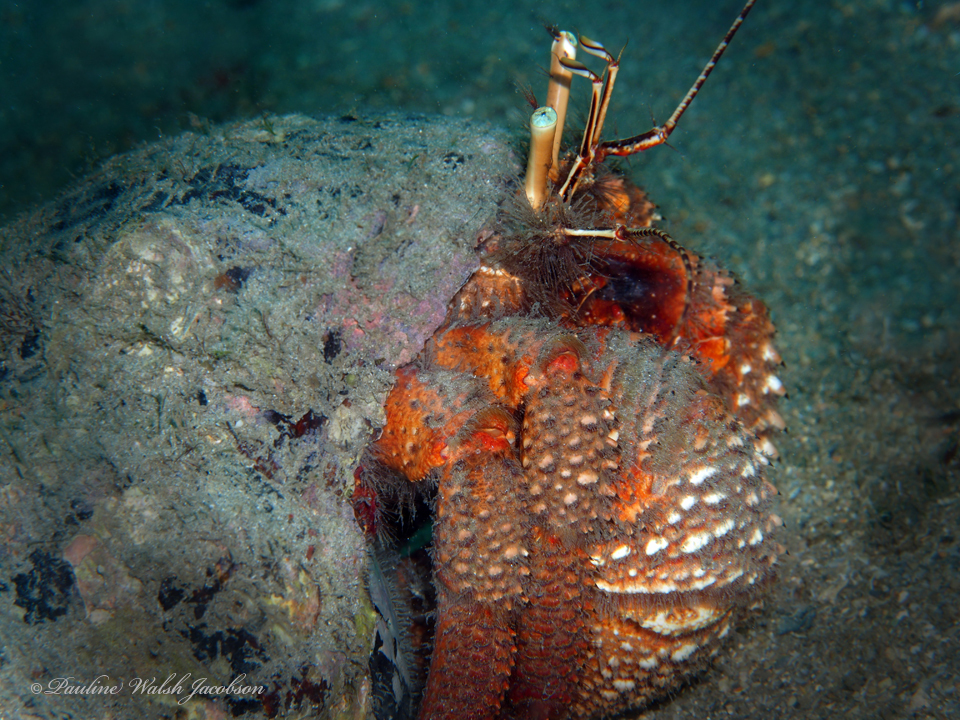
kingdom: Animalia
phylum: Arthropoda
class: Malacostraca
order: Decapoda
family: Diogenidae
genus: Petrochirus
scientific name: Petrochirus diogenes
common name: Giant hermit crab
